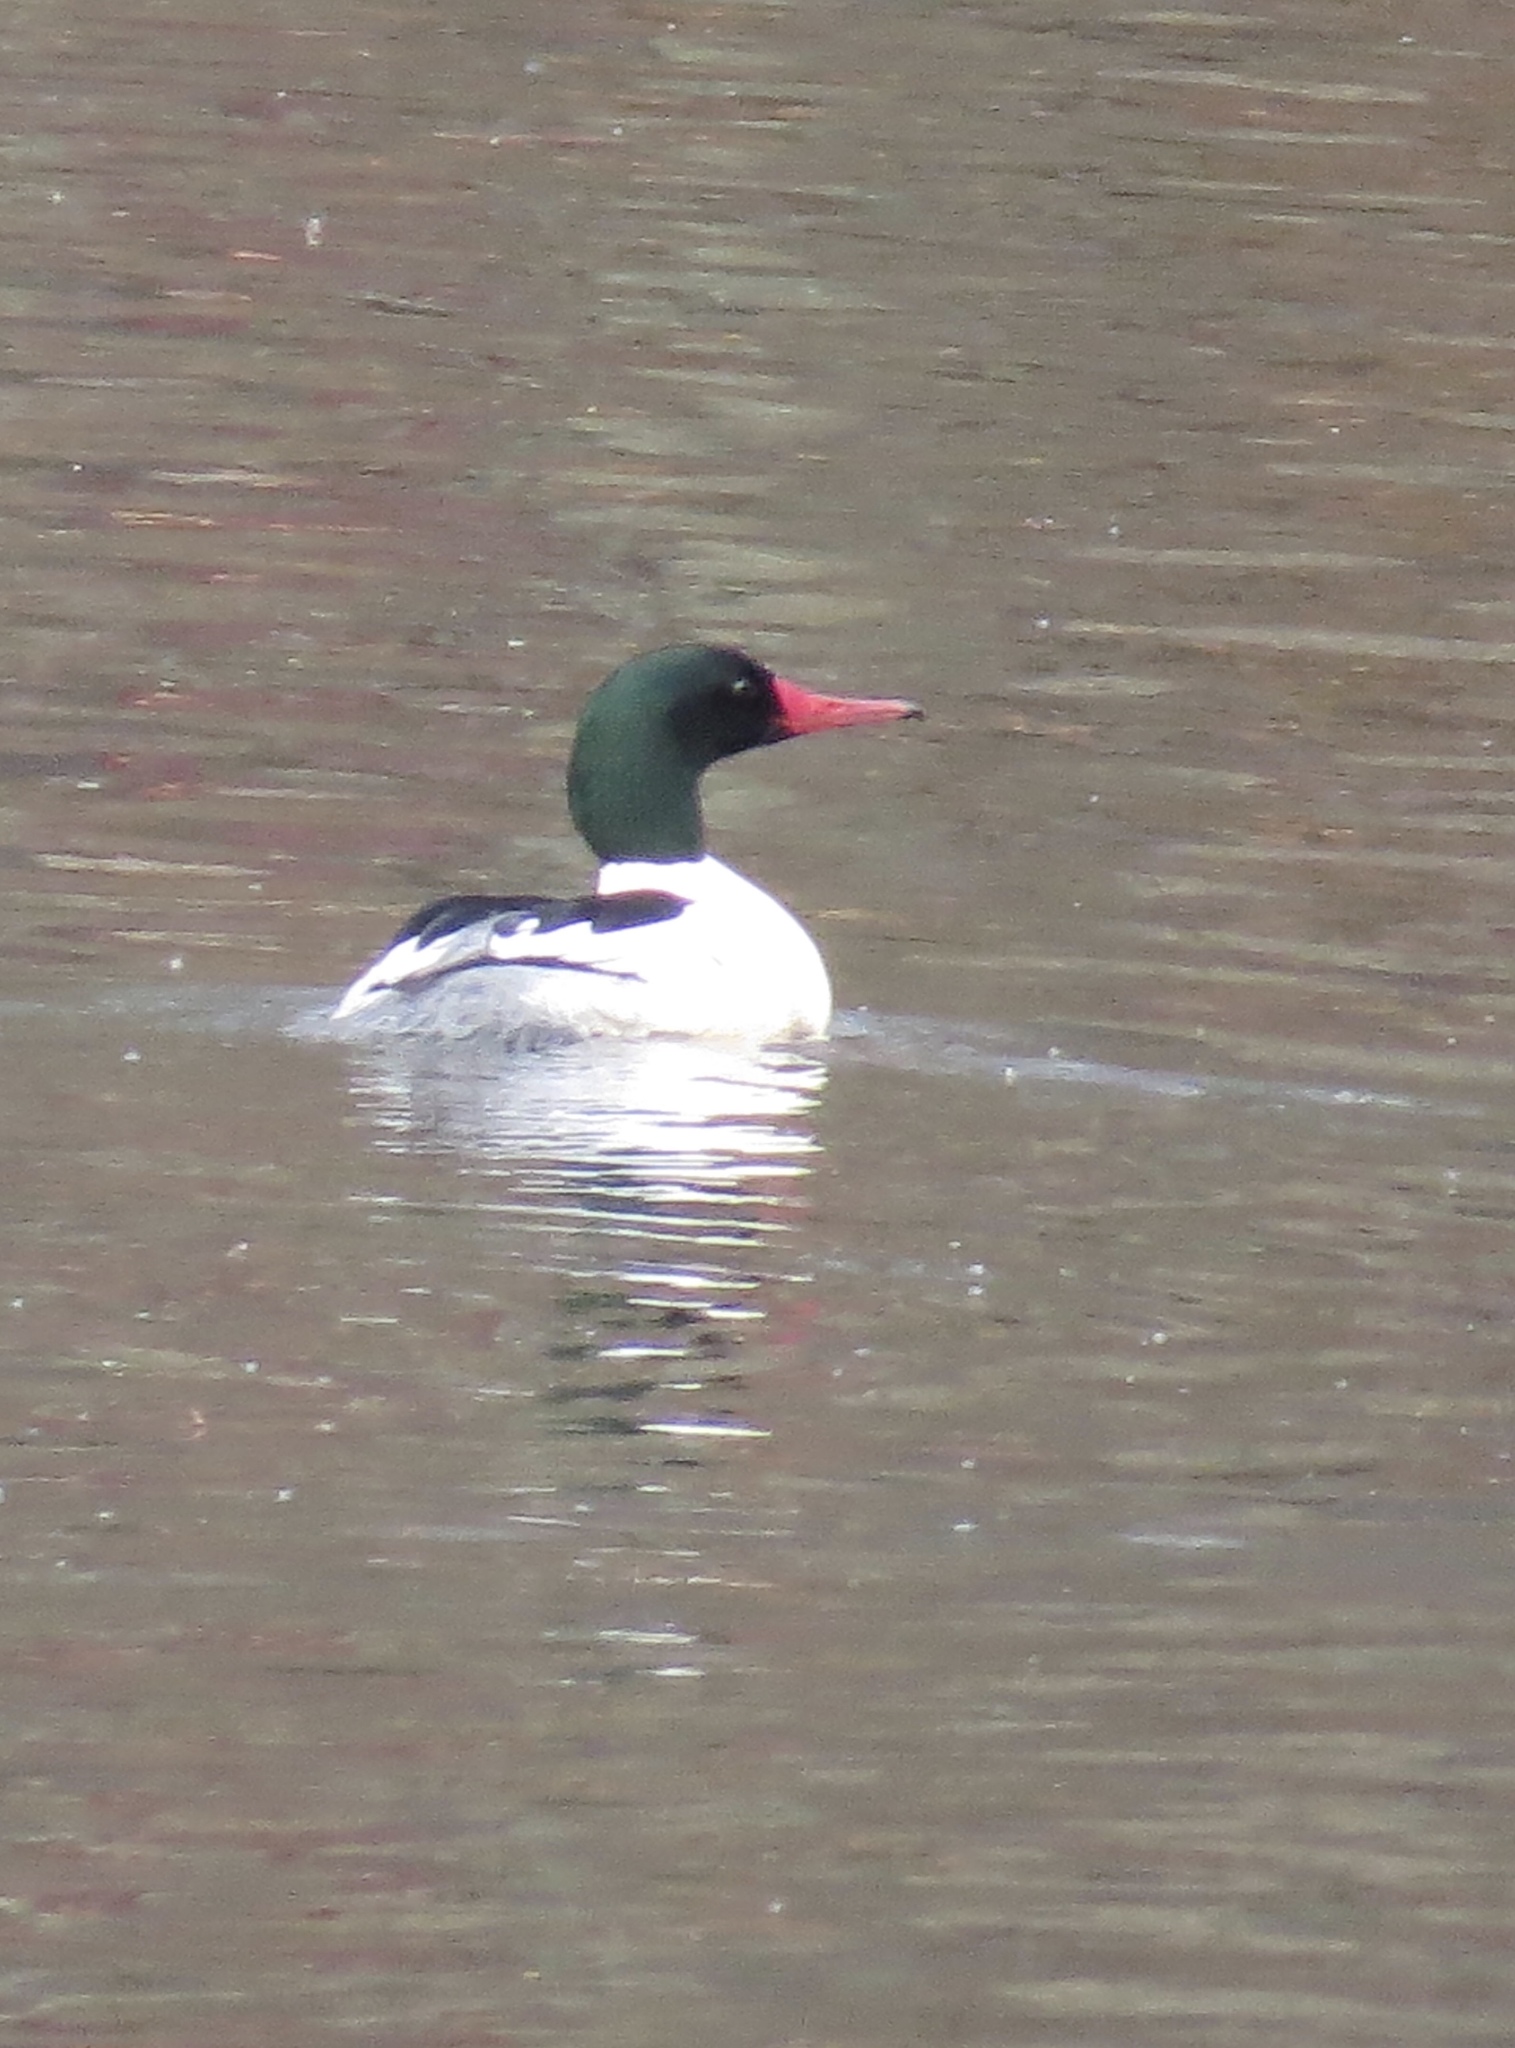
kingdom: Animalia
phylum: Chordata
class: Aves
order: Anseriformes
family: Anatidae
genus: Mergus
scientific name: Mergus merganser
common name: Common merganser
